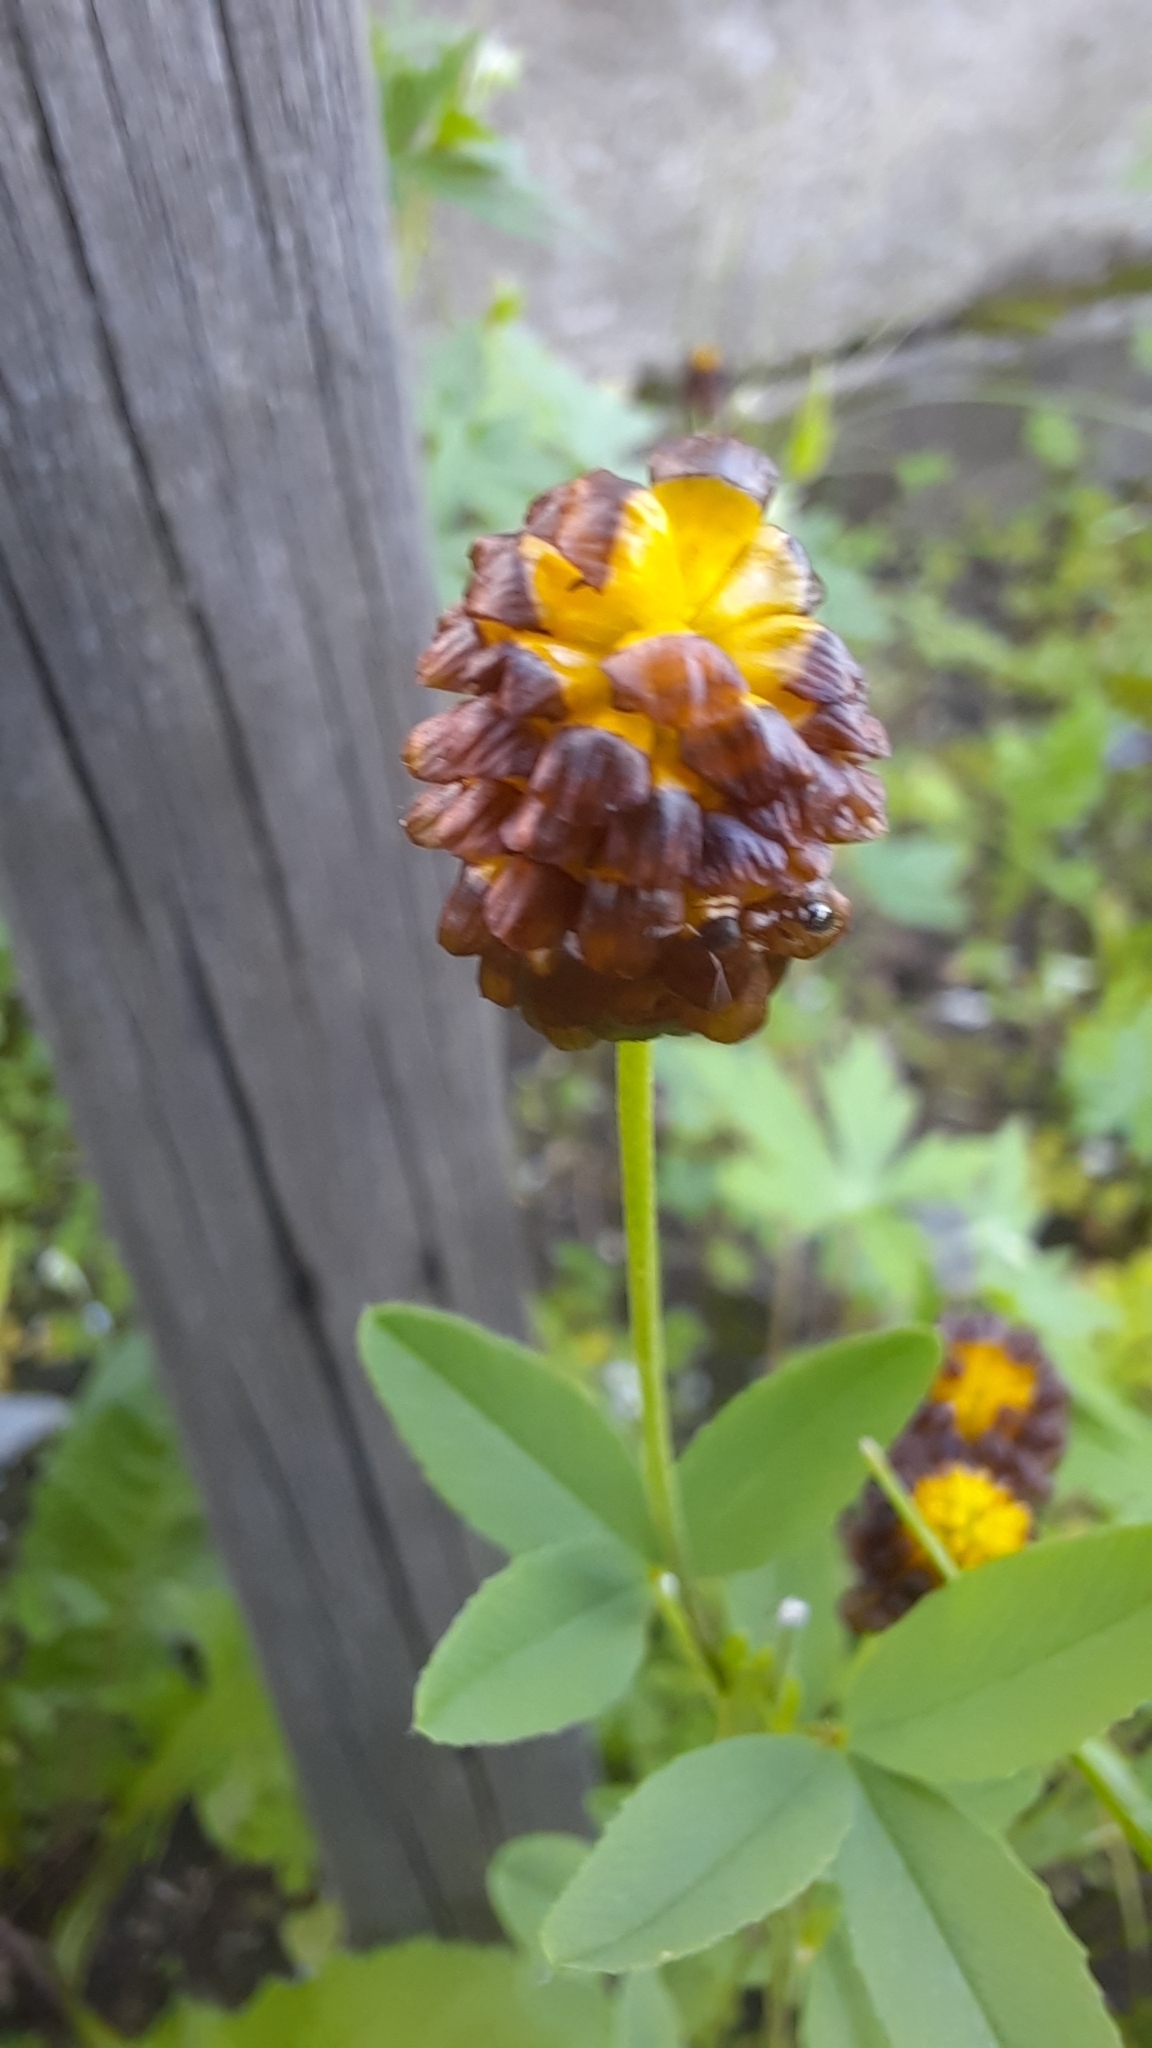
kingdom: Plantae
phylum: Tracheophyta
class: Magnoliopsida
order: Fabales
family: Fabaceae
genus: Trifolium
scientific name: Trifolium spadiceum
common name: Brown moor clover
